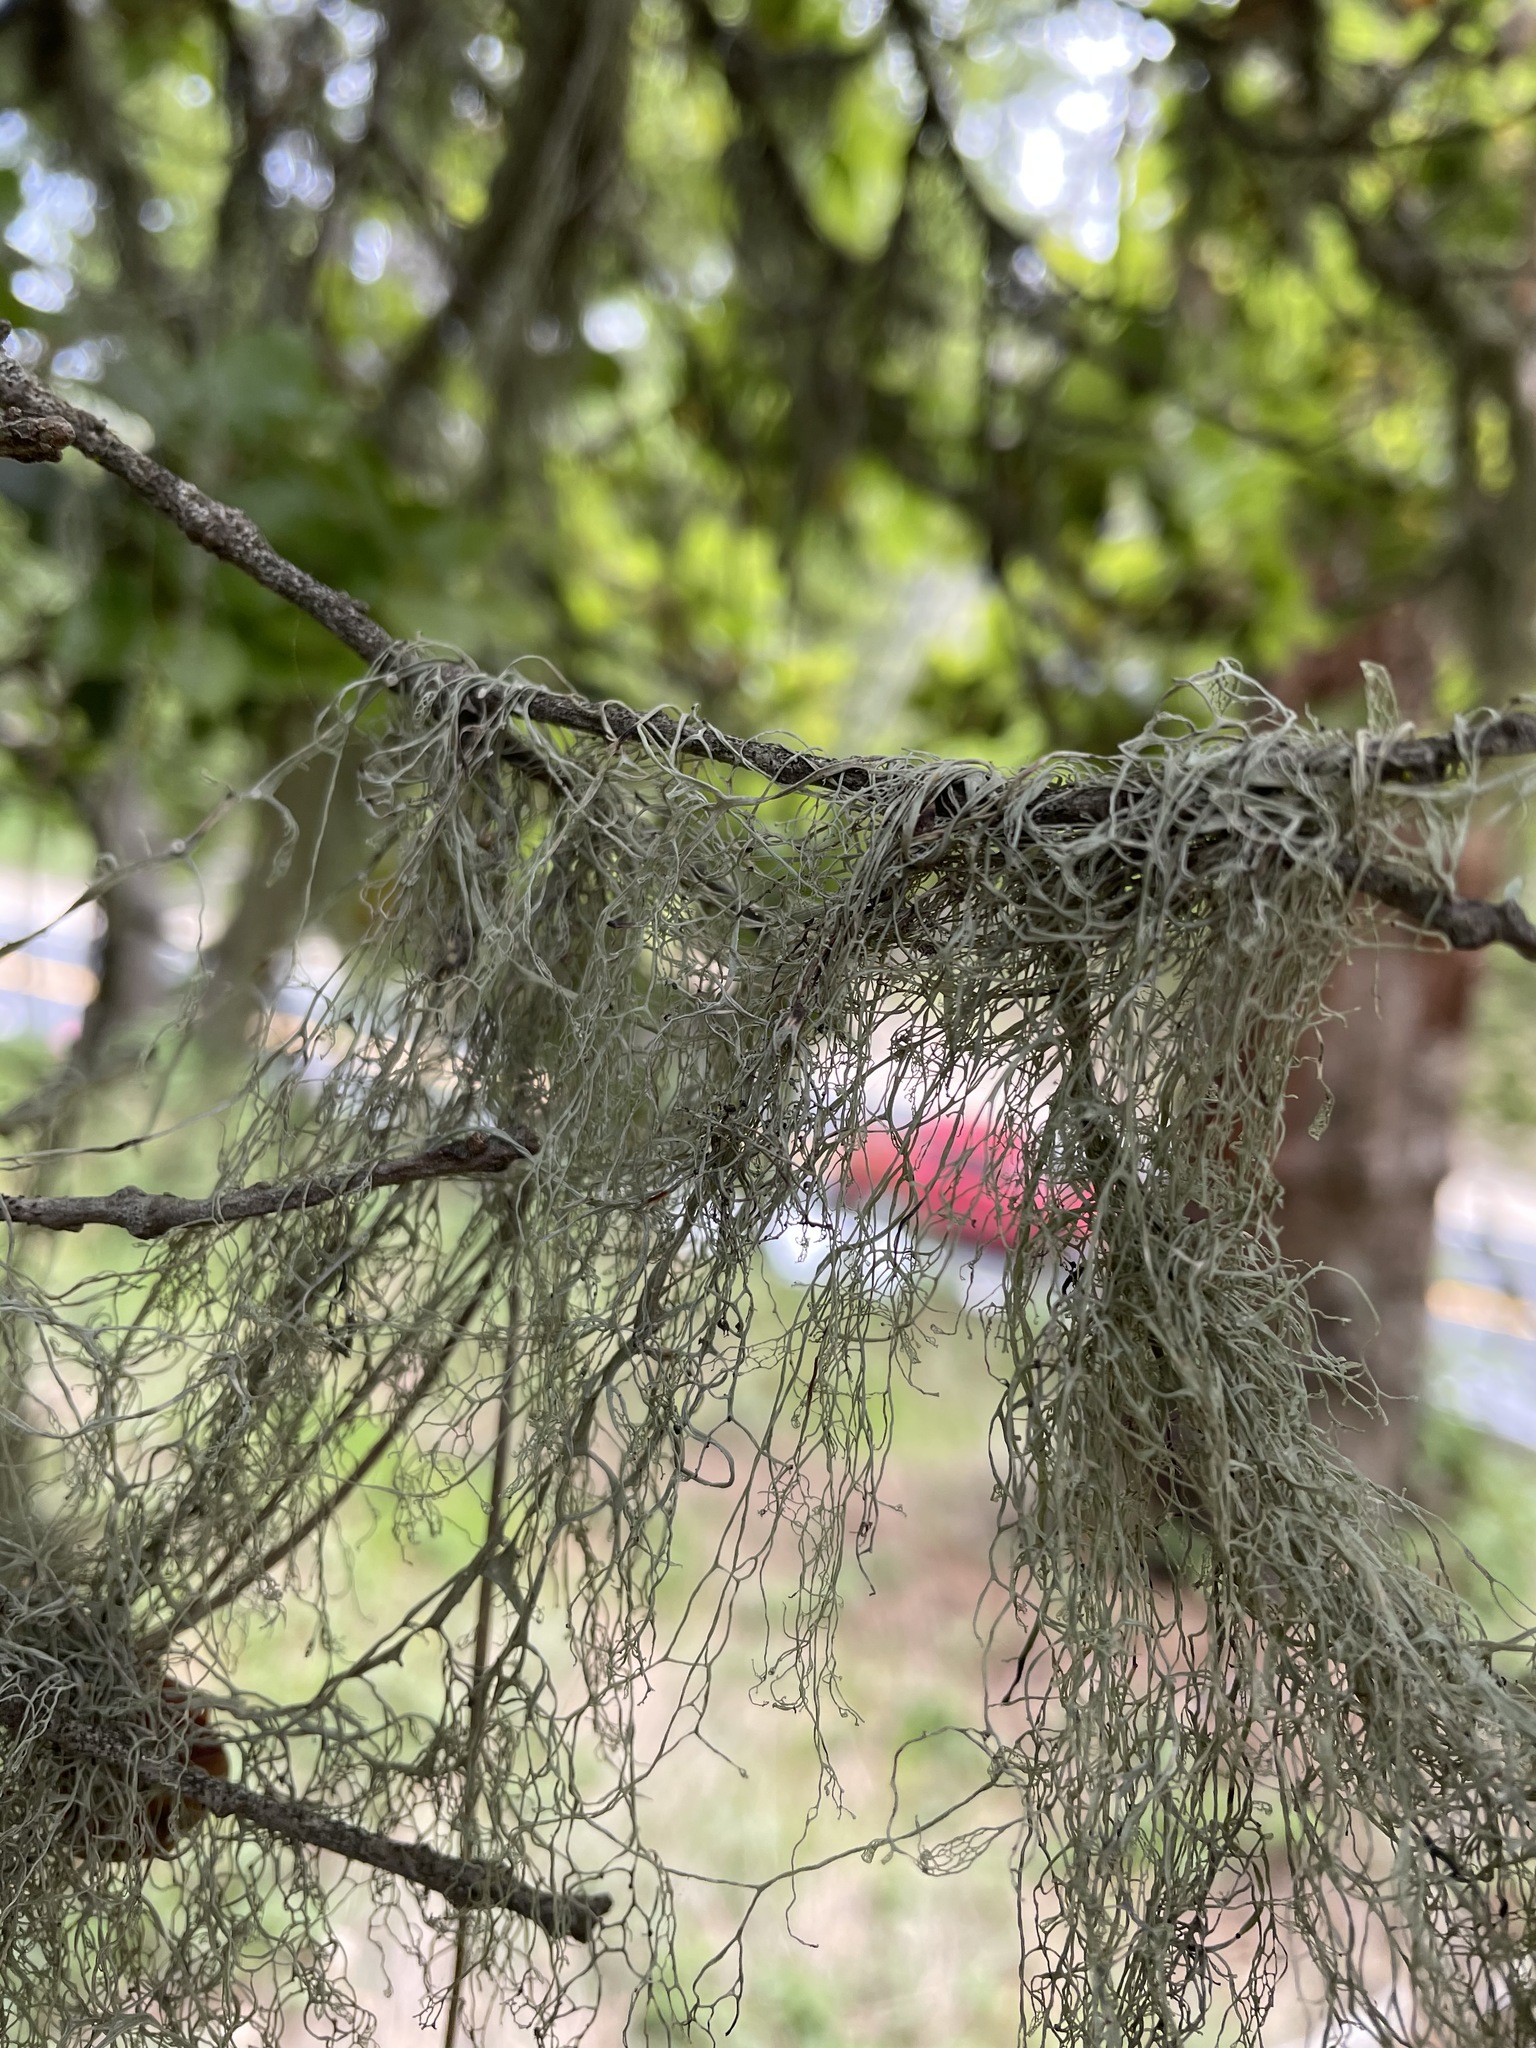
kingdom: Fungi
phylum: Ascomycota
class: Lecanoromycetes
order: Lecanorales
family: Ramalinaceae
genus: Ramalina
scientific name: Ramalina menziesii
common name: Lace lichen
